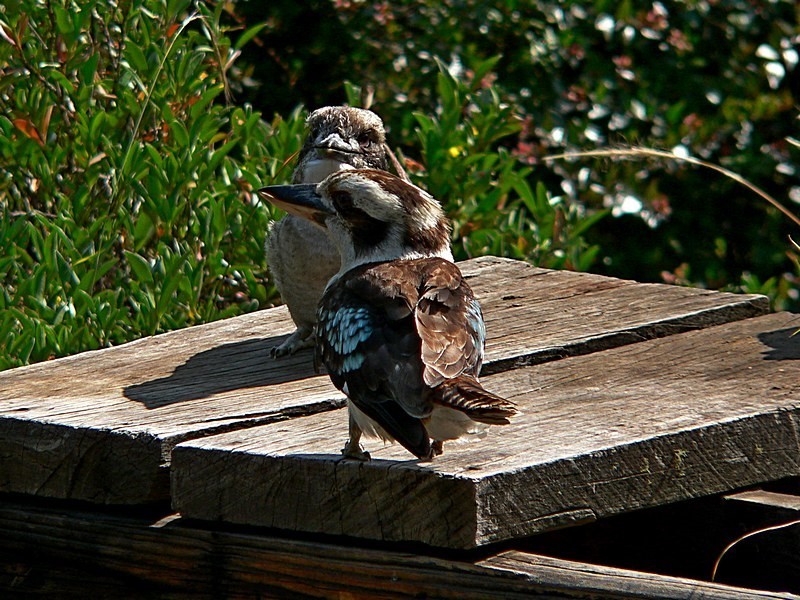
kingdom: Animalia
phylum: Chordata
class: Aves
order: Coraciiformes
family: Alcedinidae
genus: Dacelo
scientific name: Dacelo novaeguineae
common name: Laughing kookaburra
